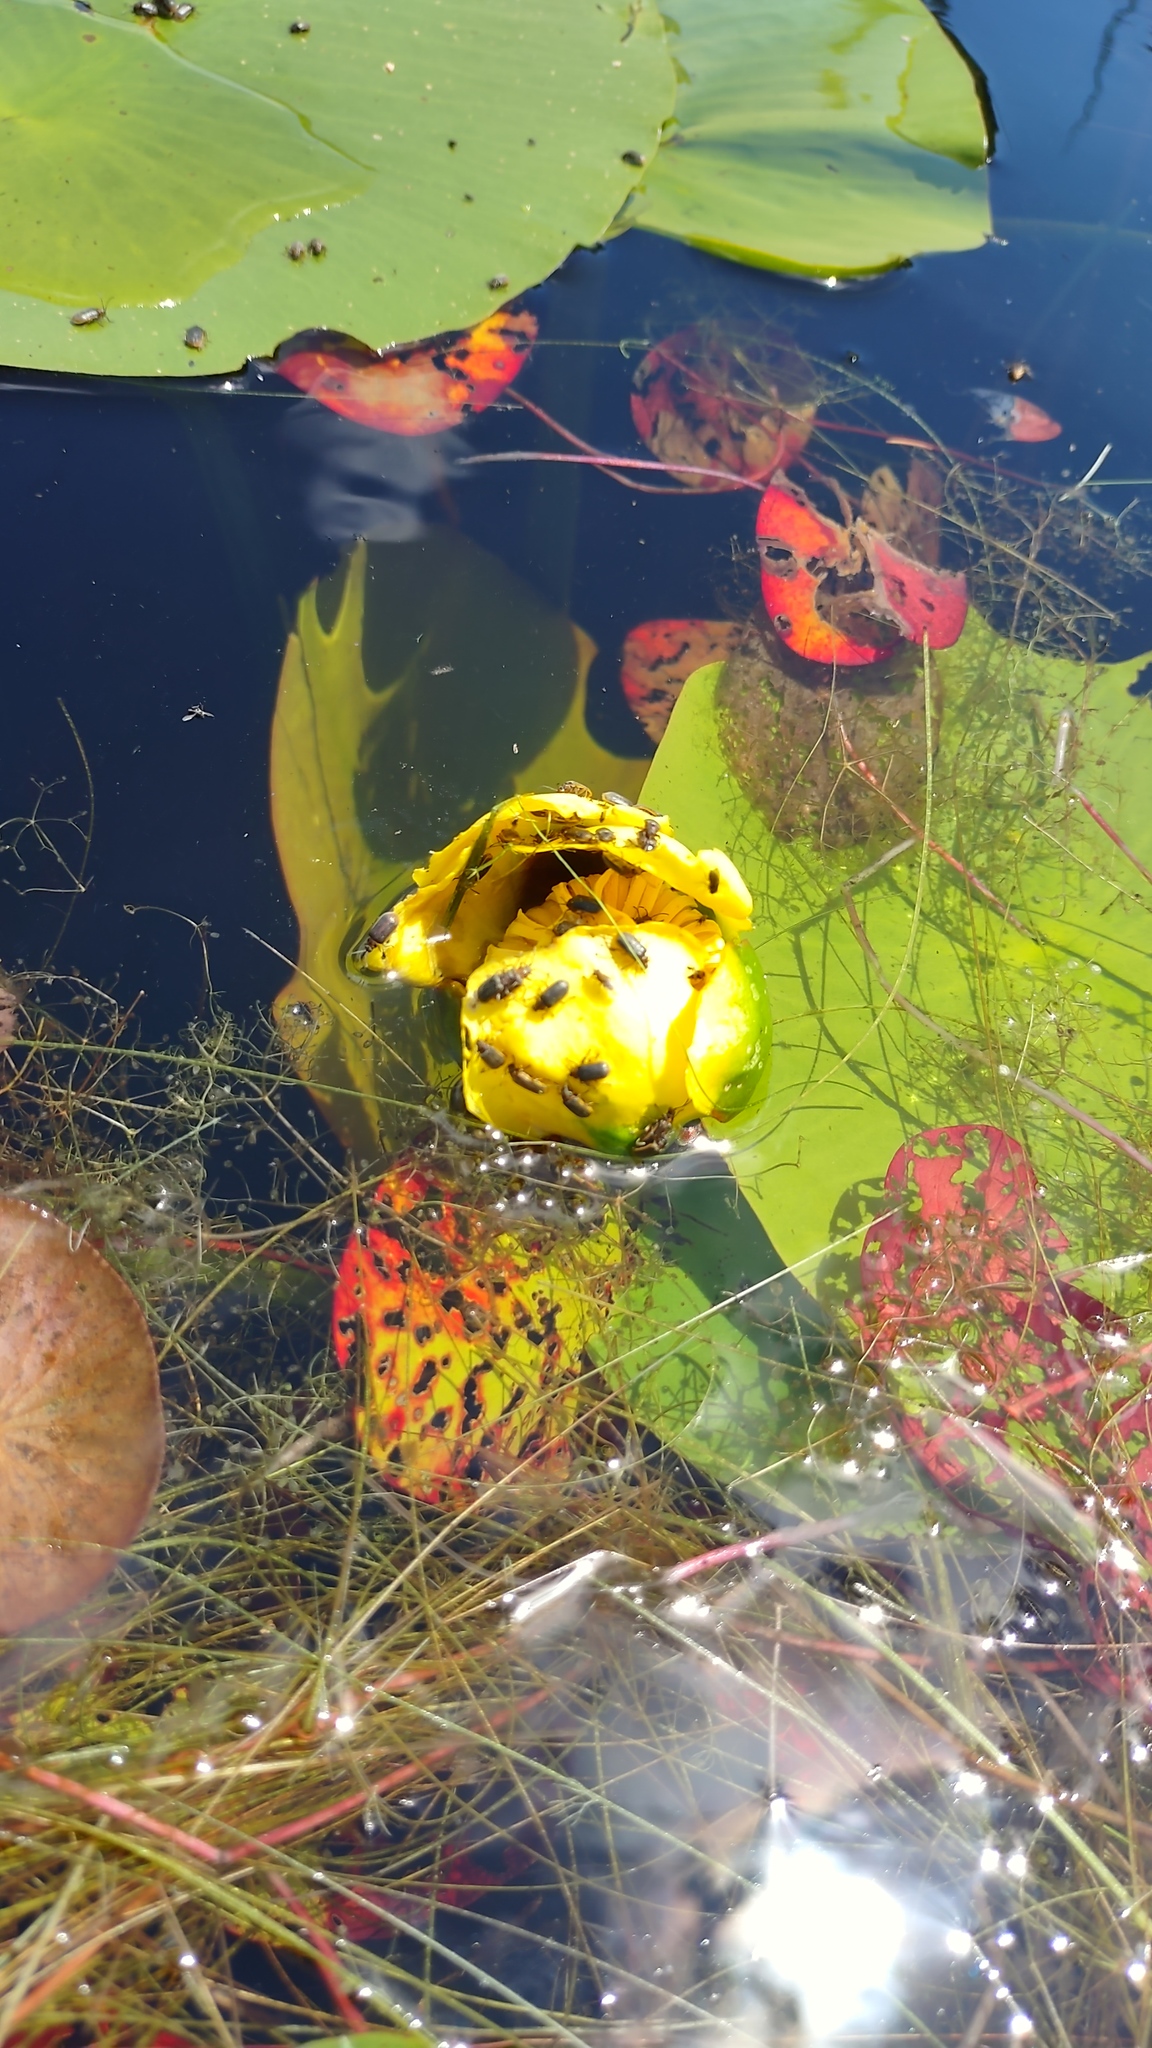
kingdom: Animalia
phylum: Arthropoda
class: Insecta
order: Coleoptera
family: Chrysomelidae
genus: Galerucella
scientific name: Galerucella nymphaeae
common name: Leaf beetle
